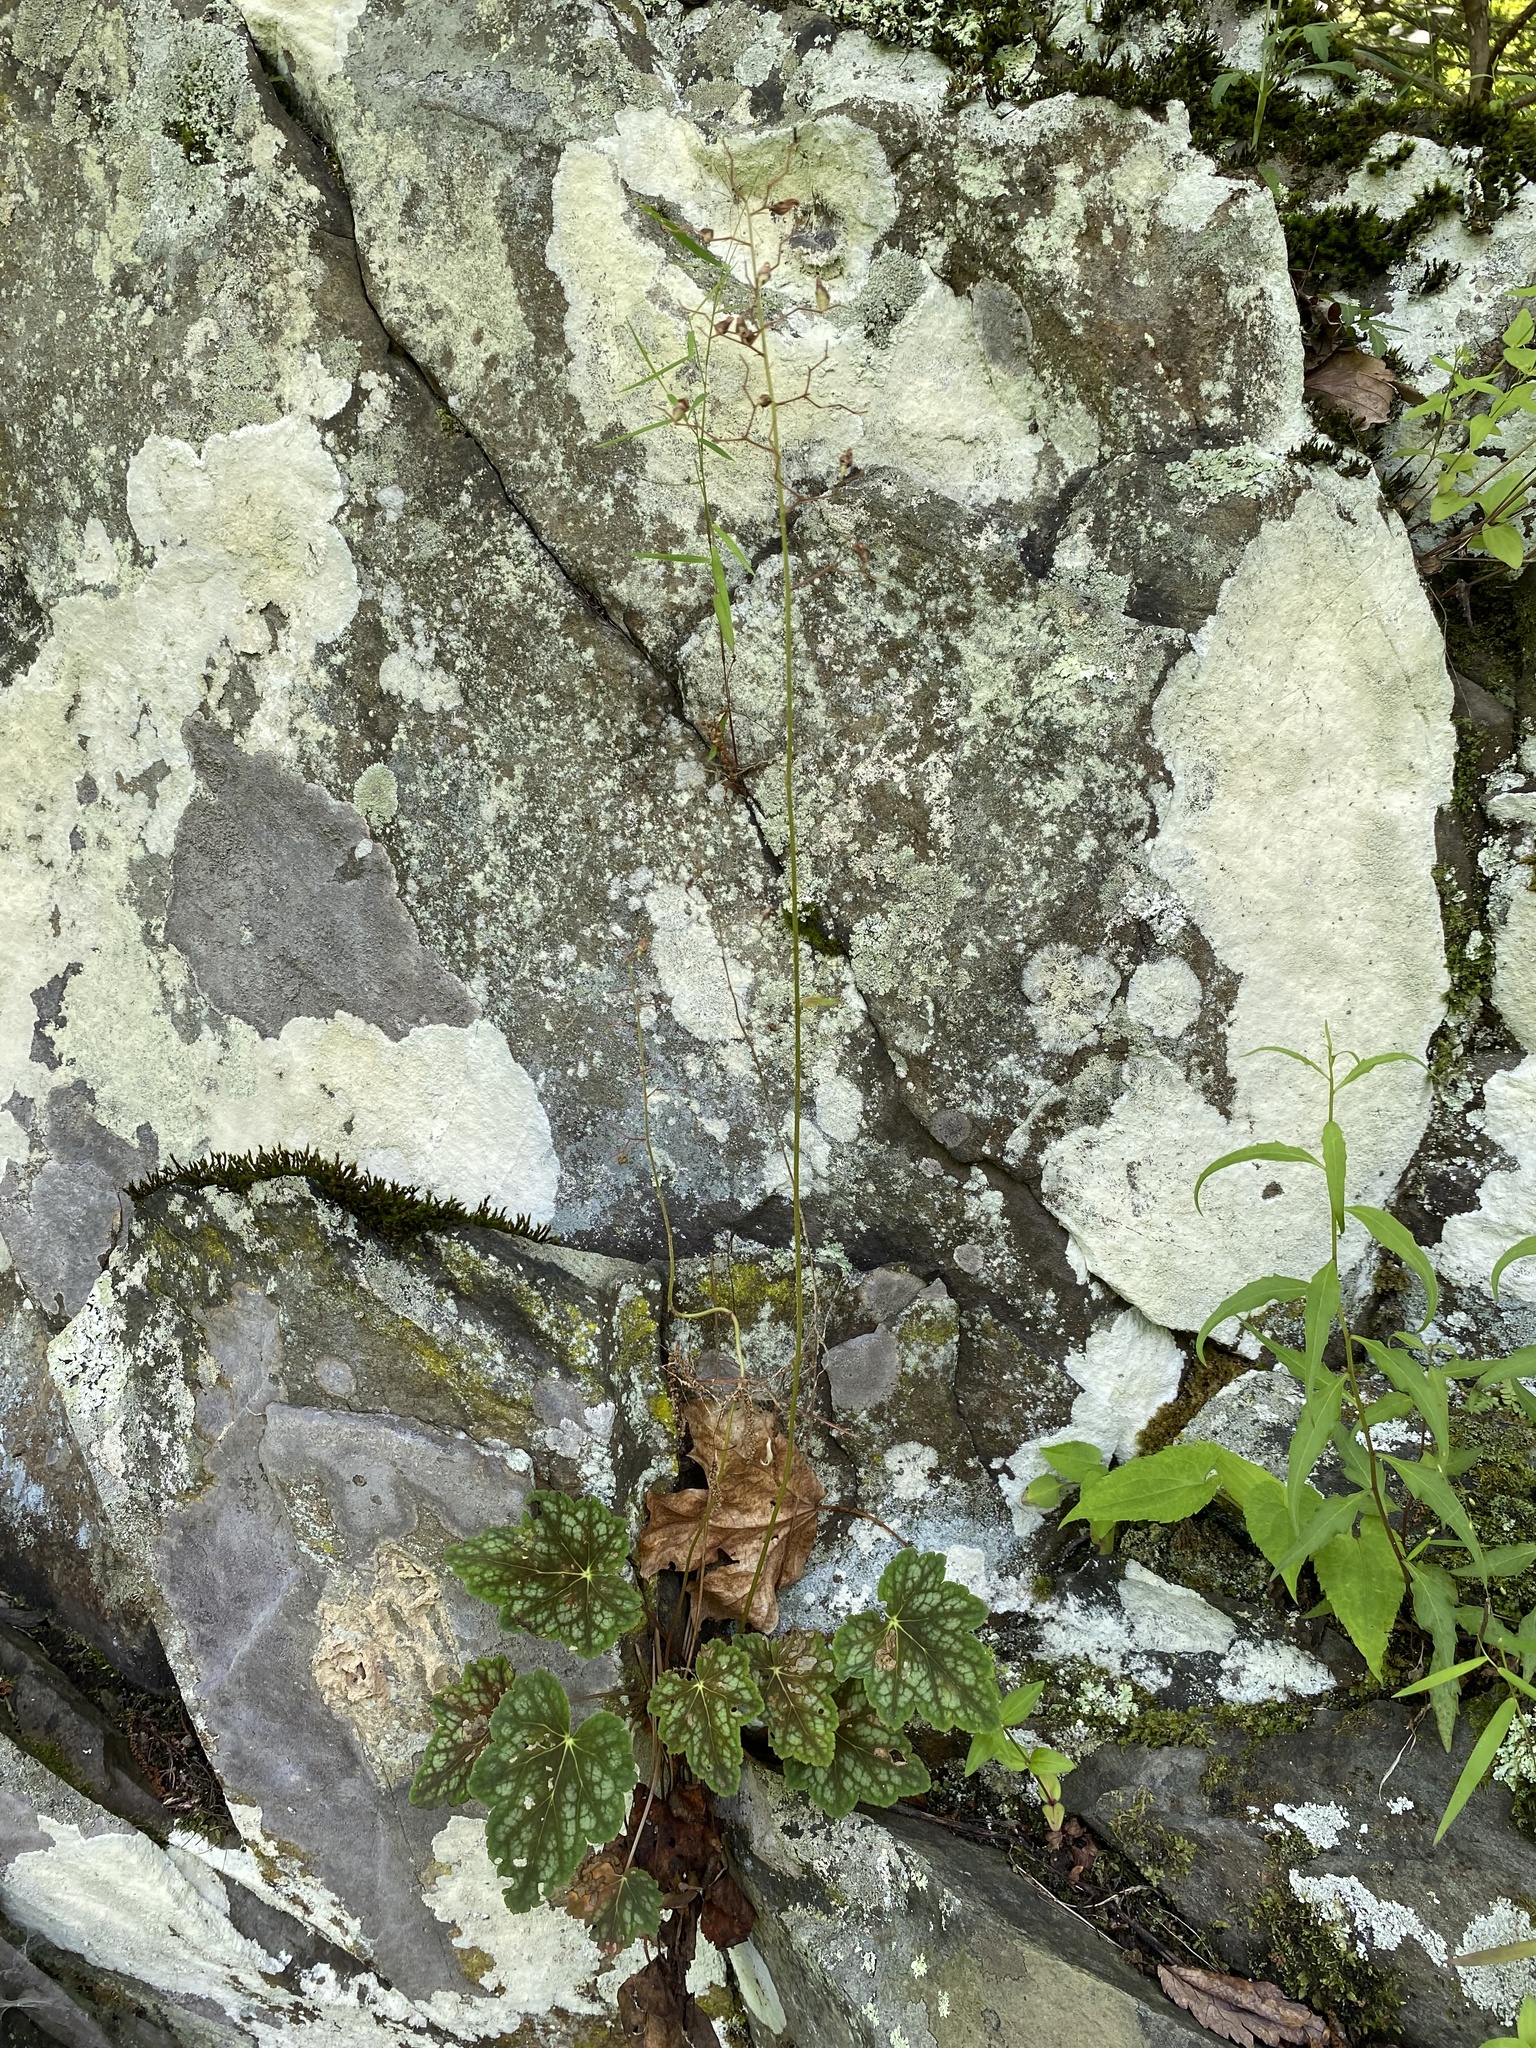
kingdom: Plantae
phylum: Tracheophyta
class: Magnoliopsida
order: Saxifragales
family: Saxifragaceae
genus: Heuchera
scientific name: Heuchera longiflora
